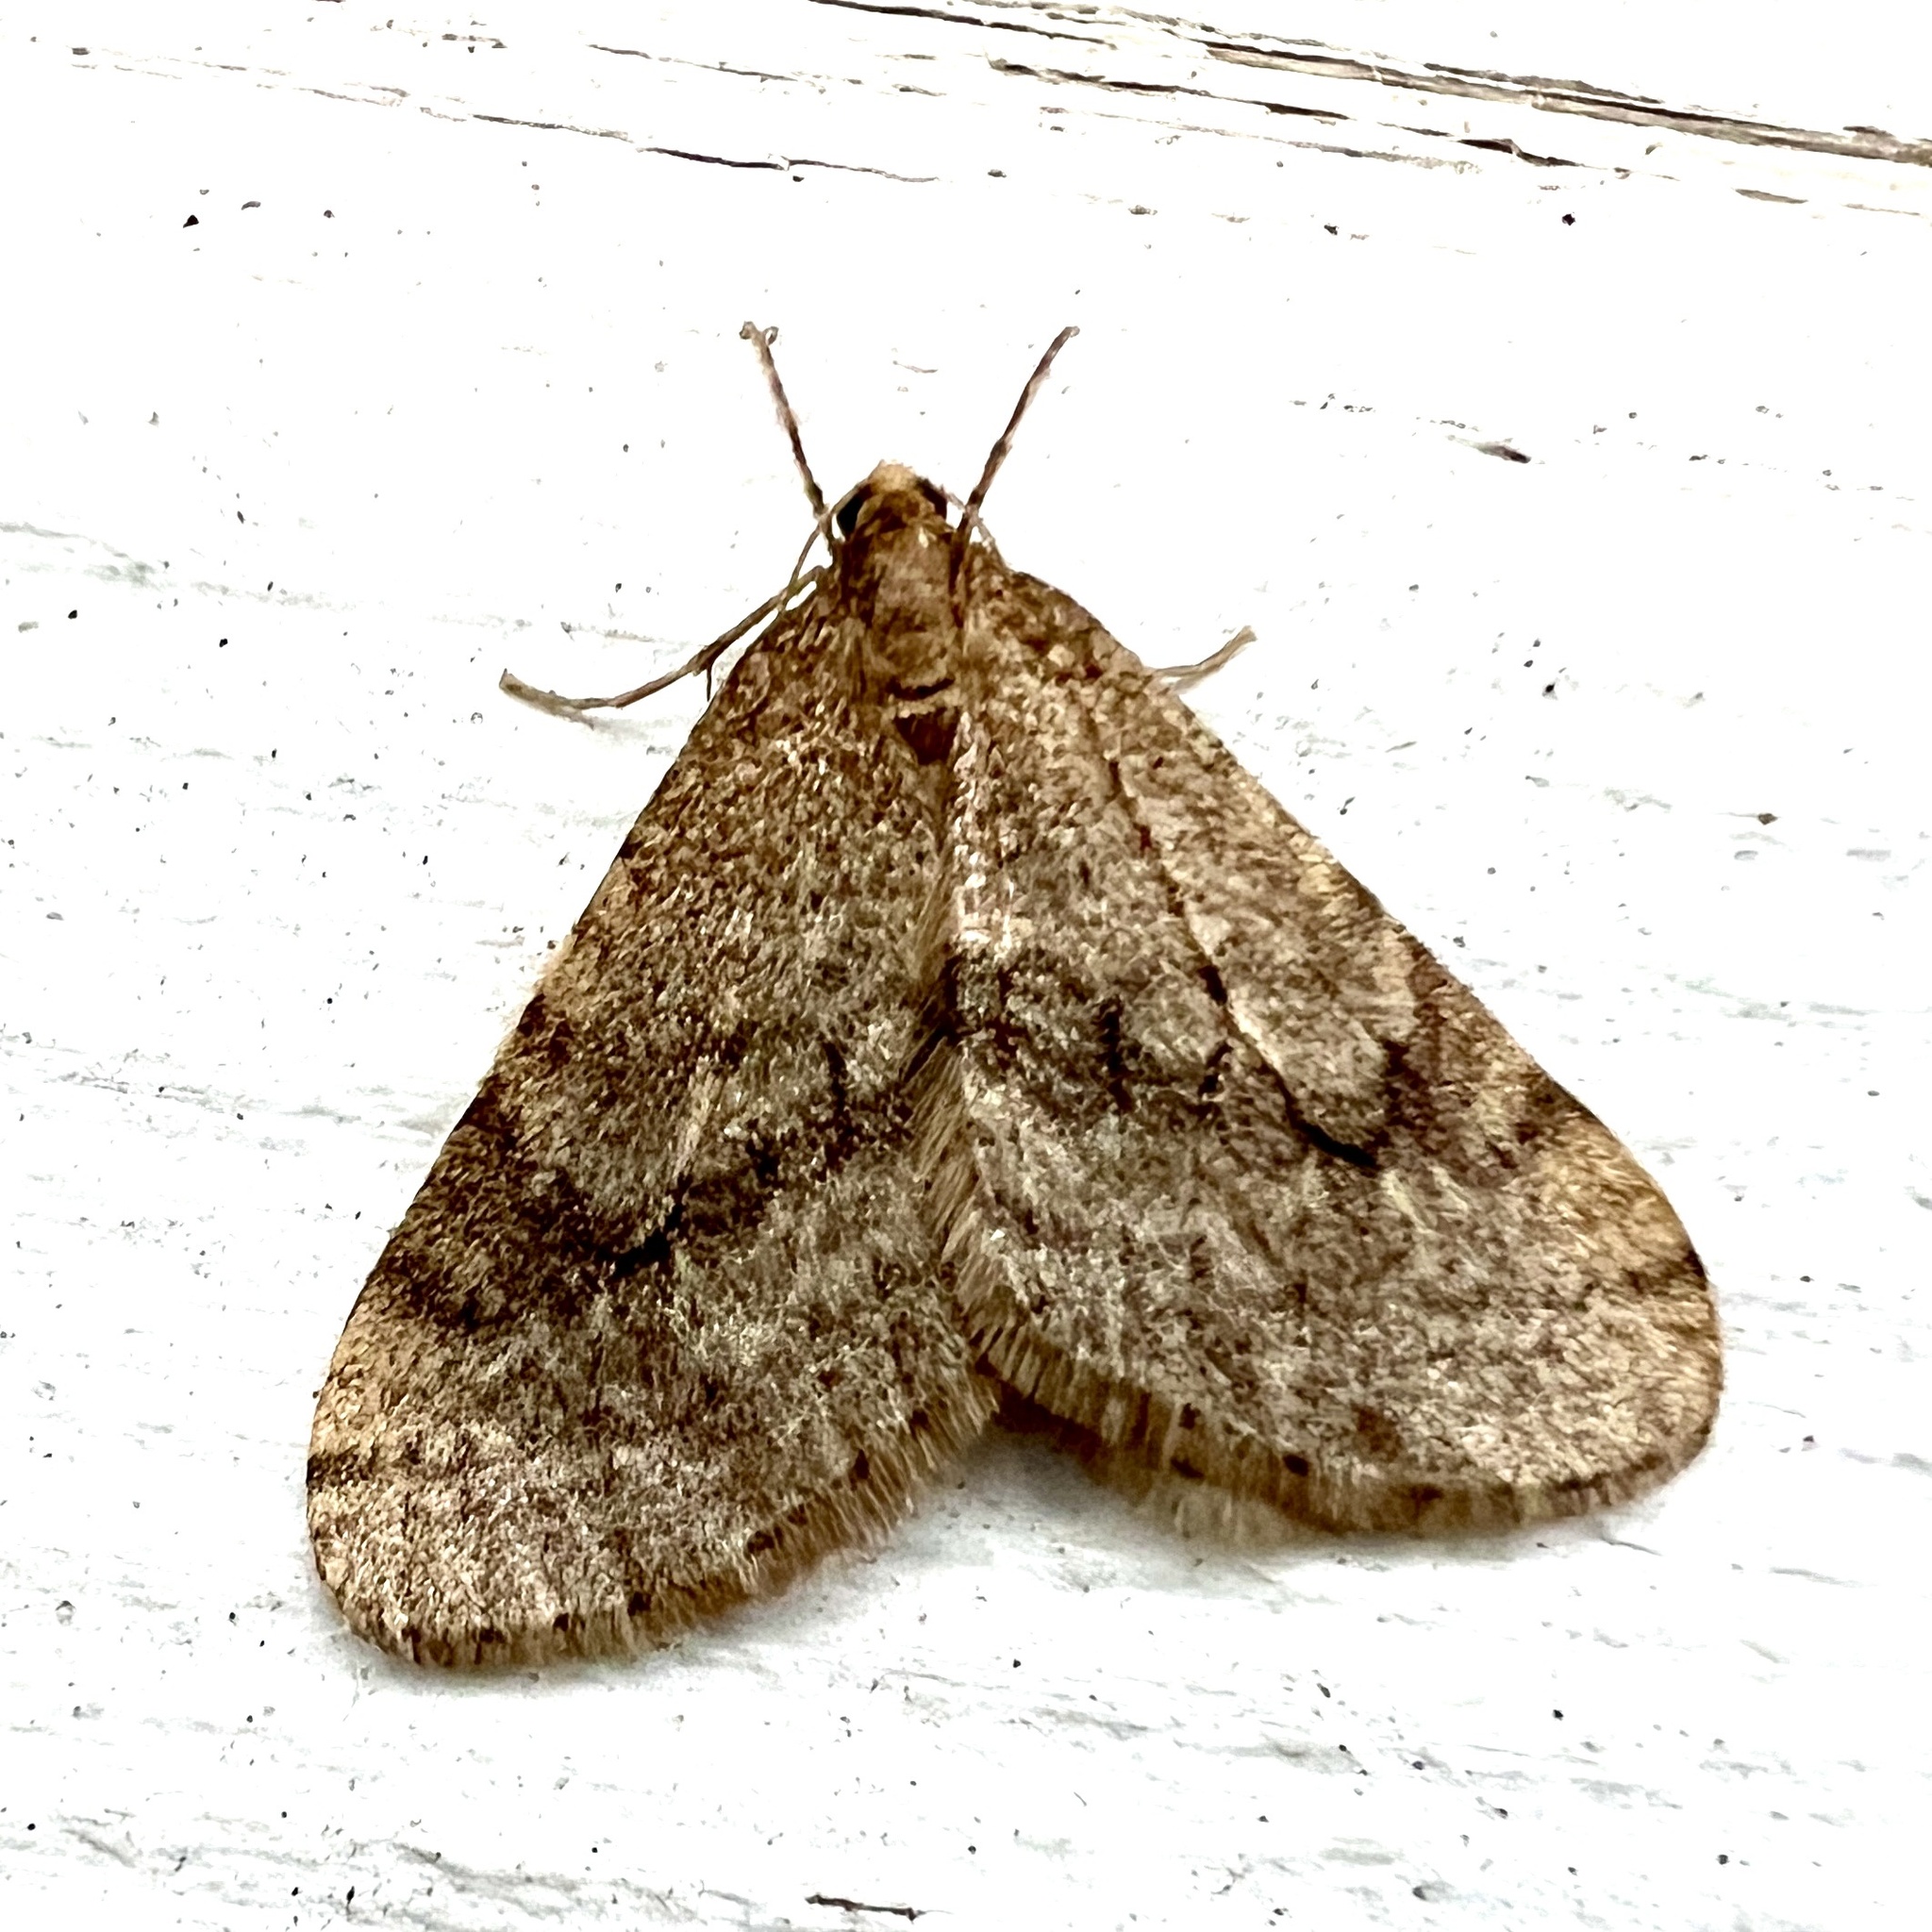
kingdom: Animalia
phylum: Arthropoda
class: Insecta
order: Lepidoptera
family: Geometridae
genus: Operophtera
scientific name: Operophtera bruceata
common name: Bruce spanworm
